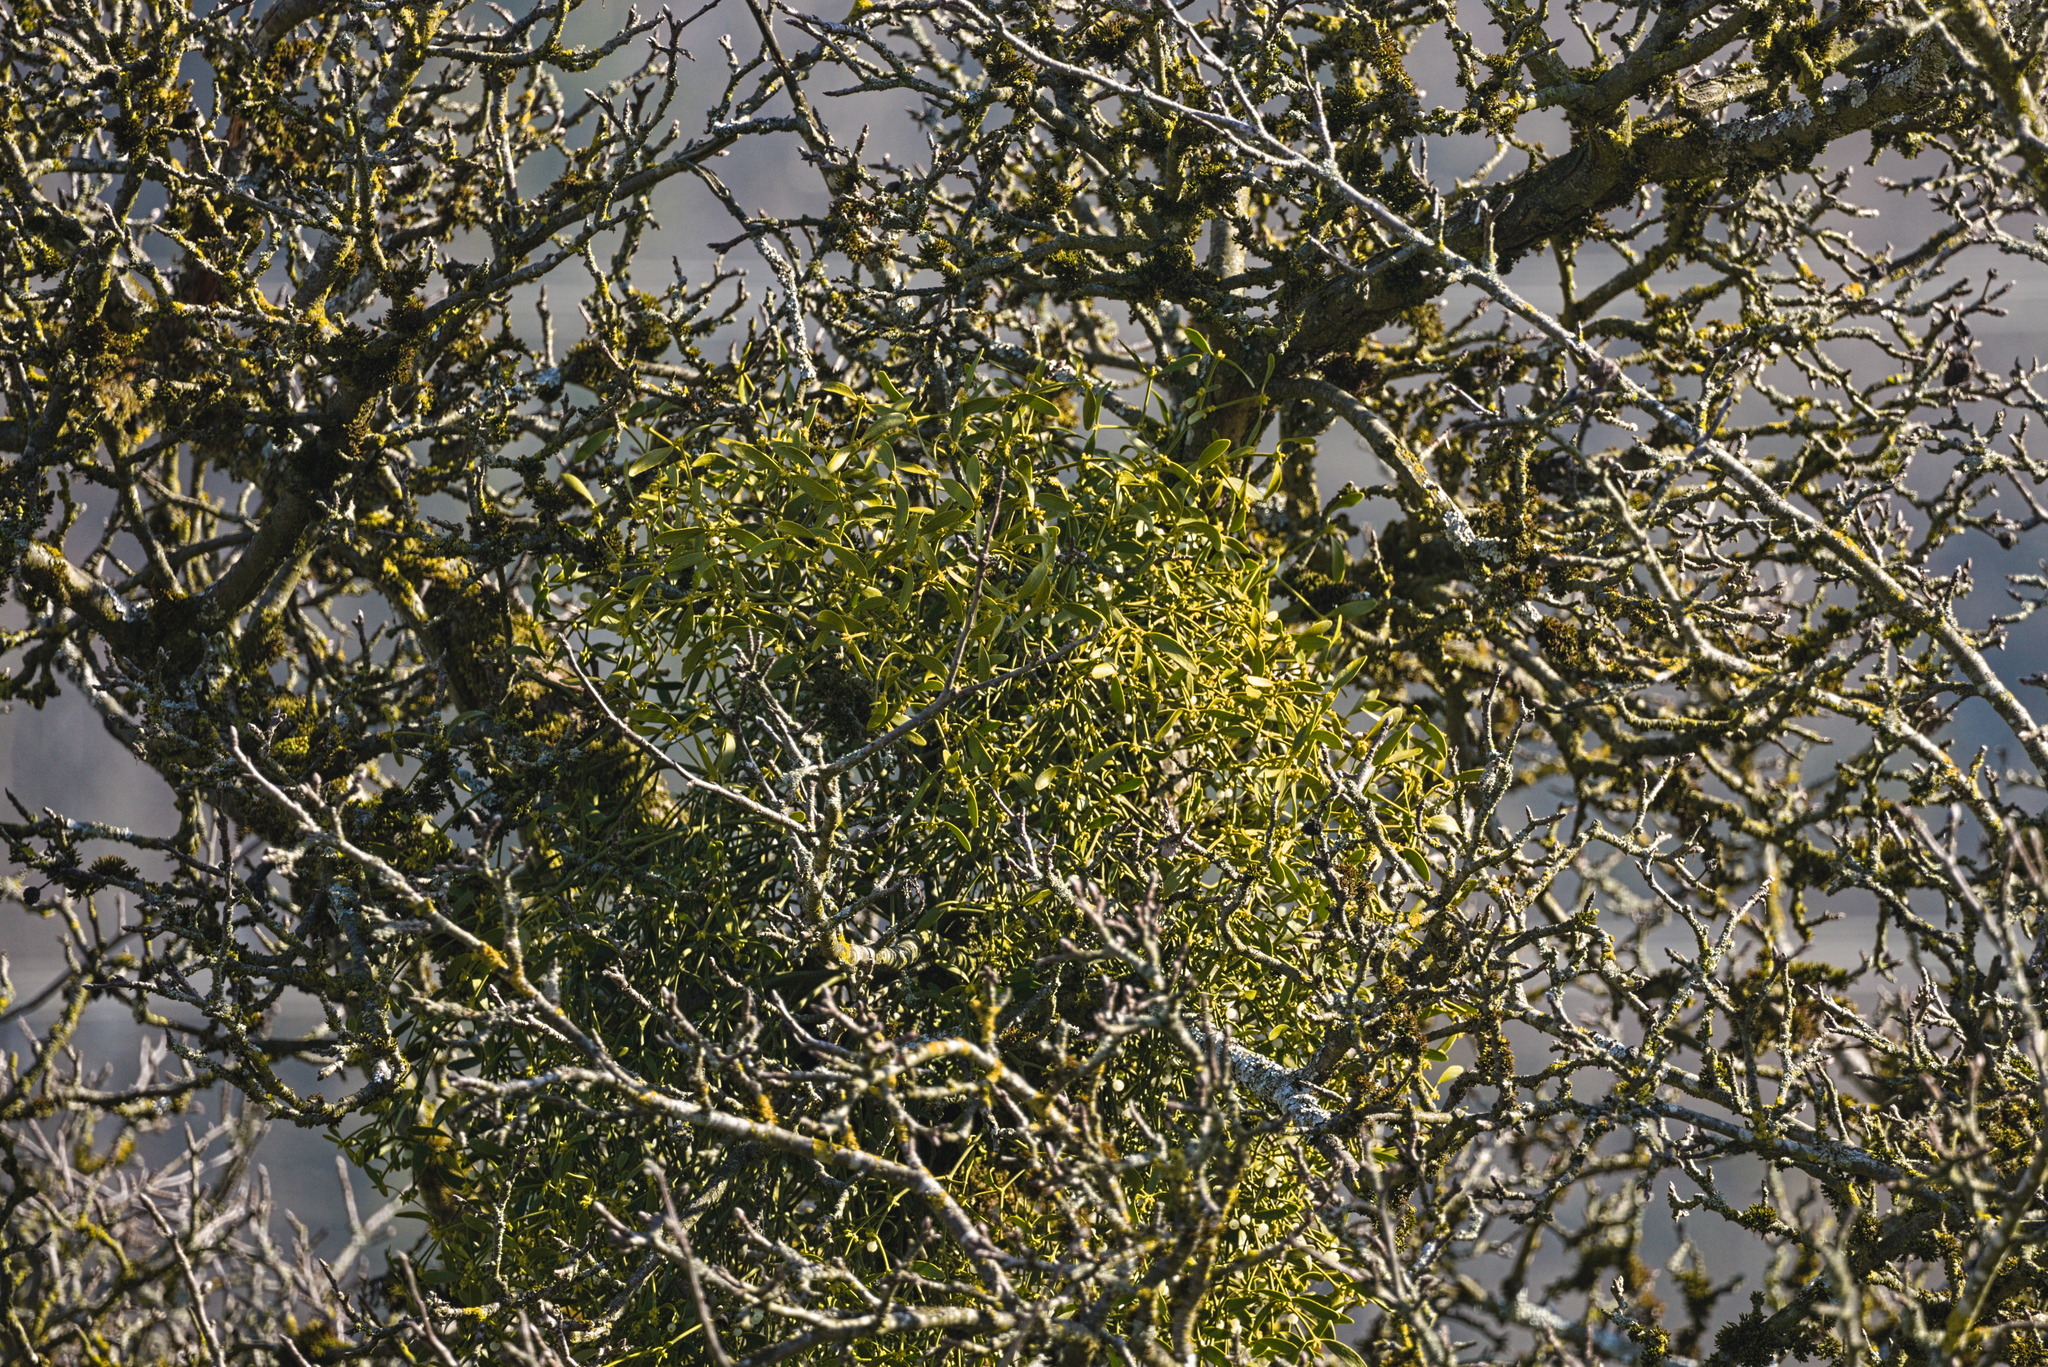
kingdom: Plantae
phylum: Tracheophyta
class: Magnoliopsida
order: Santalales
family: Viscaceae
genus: Viscum
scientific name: Viscum album
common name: Mistletoe
